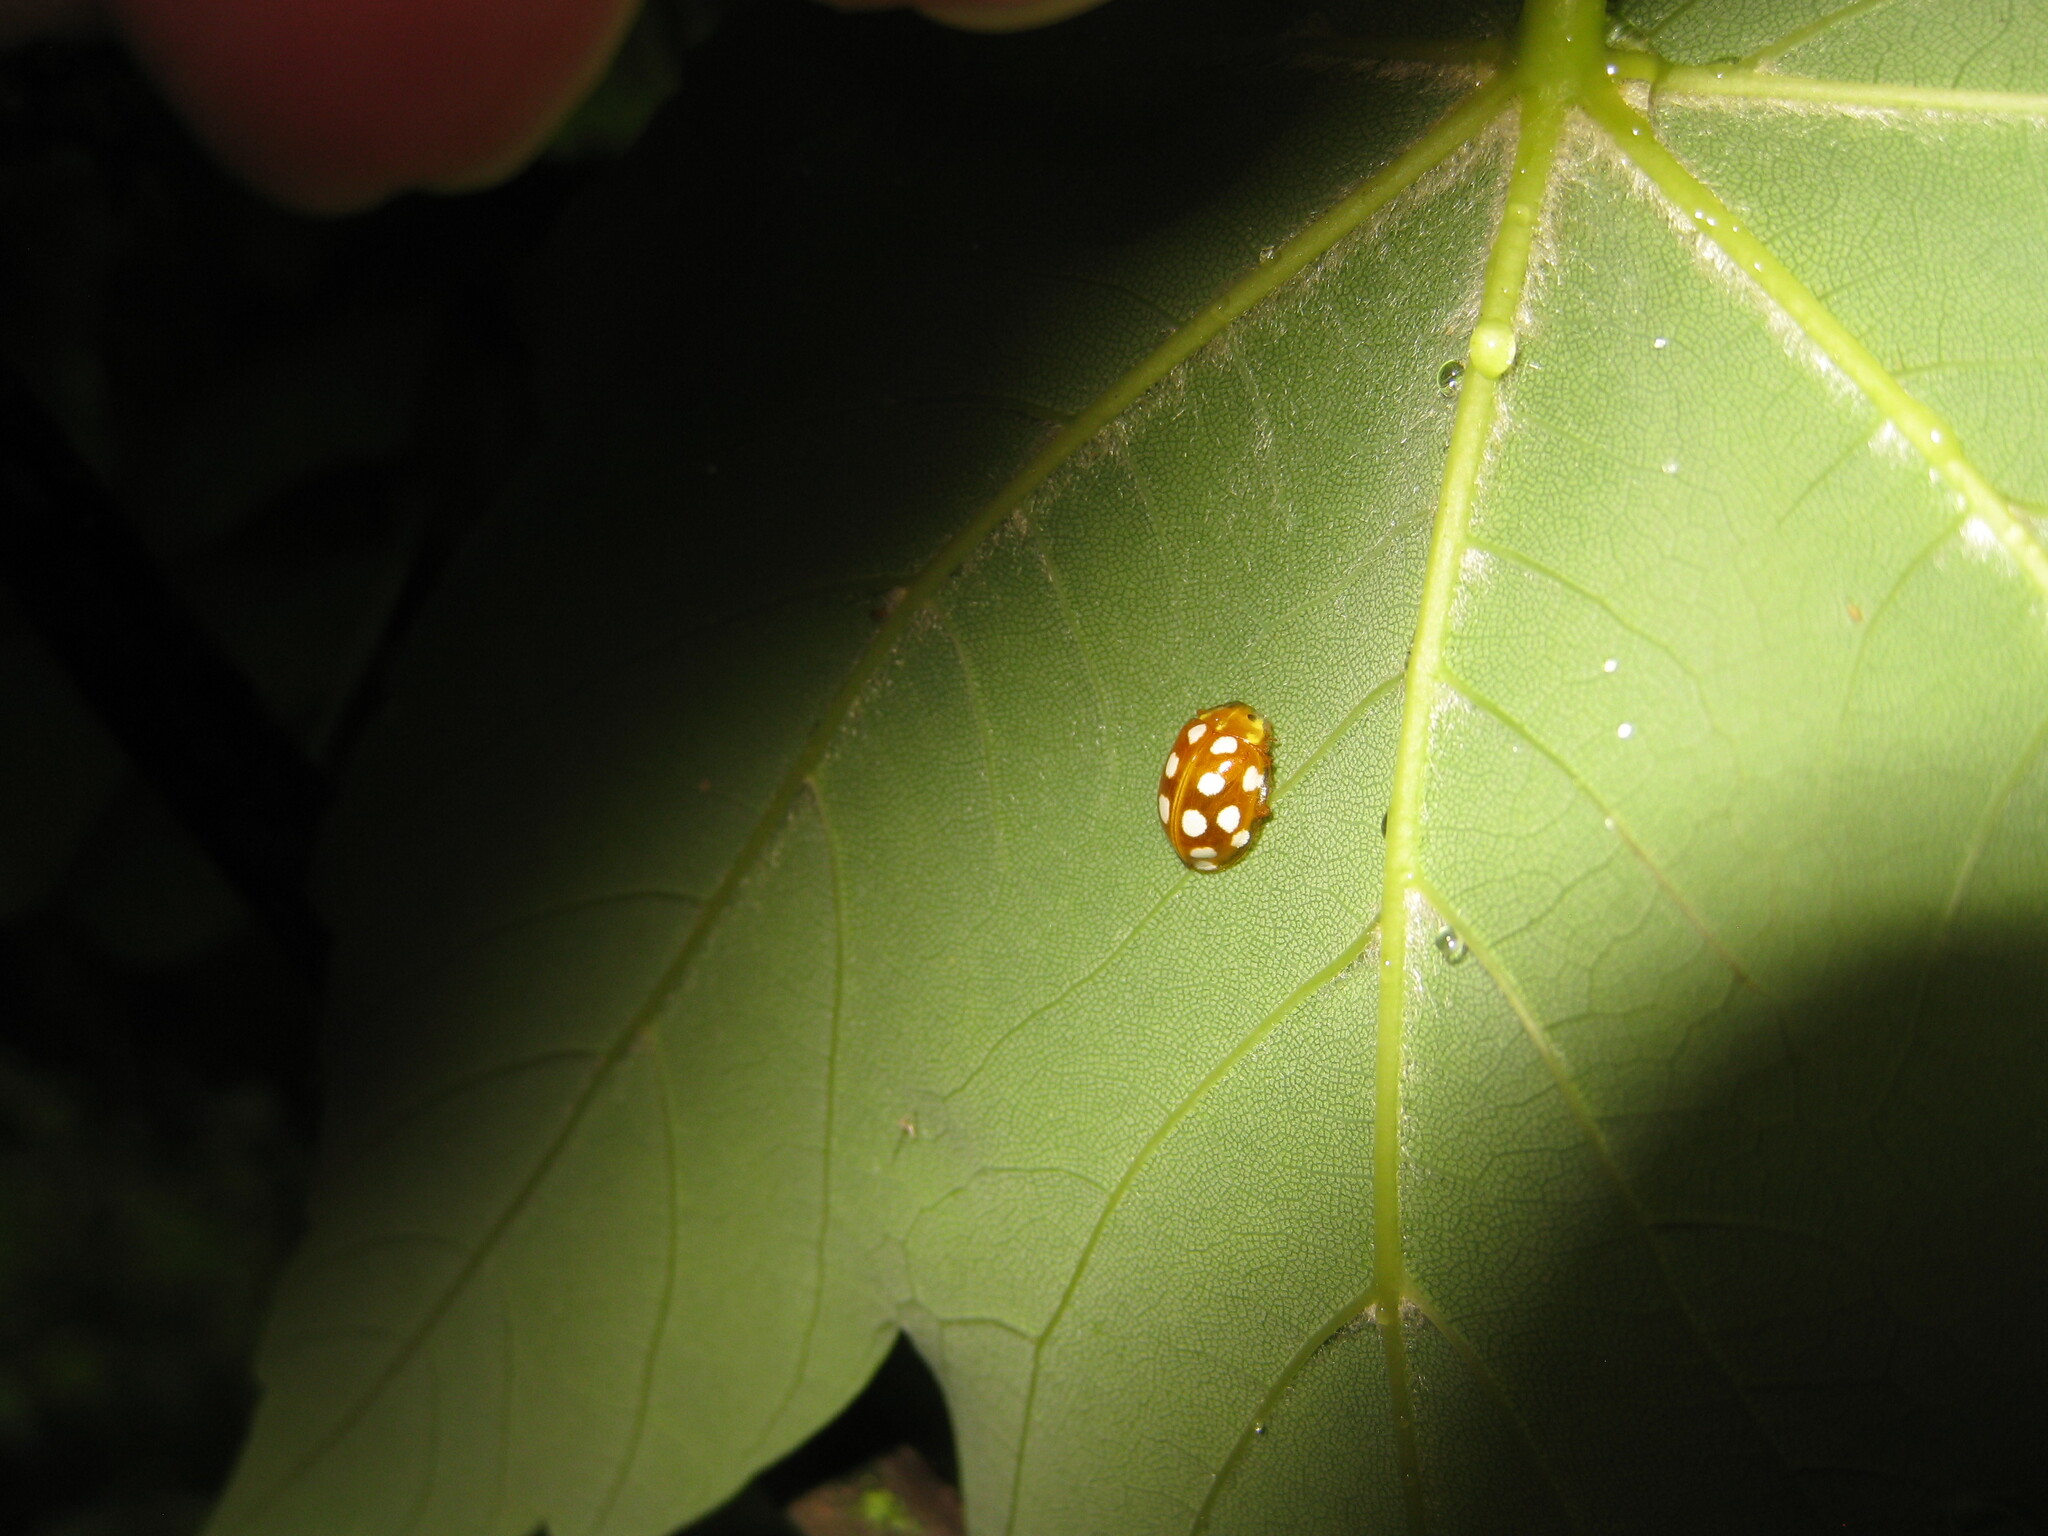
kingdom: Animalia
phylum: Arthropoda
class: Insecta
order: Coleoptera
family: Coccinellidae
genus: Halyzia
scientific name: Halyzia sedecimguttata
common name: Orange ladybird
